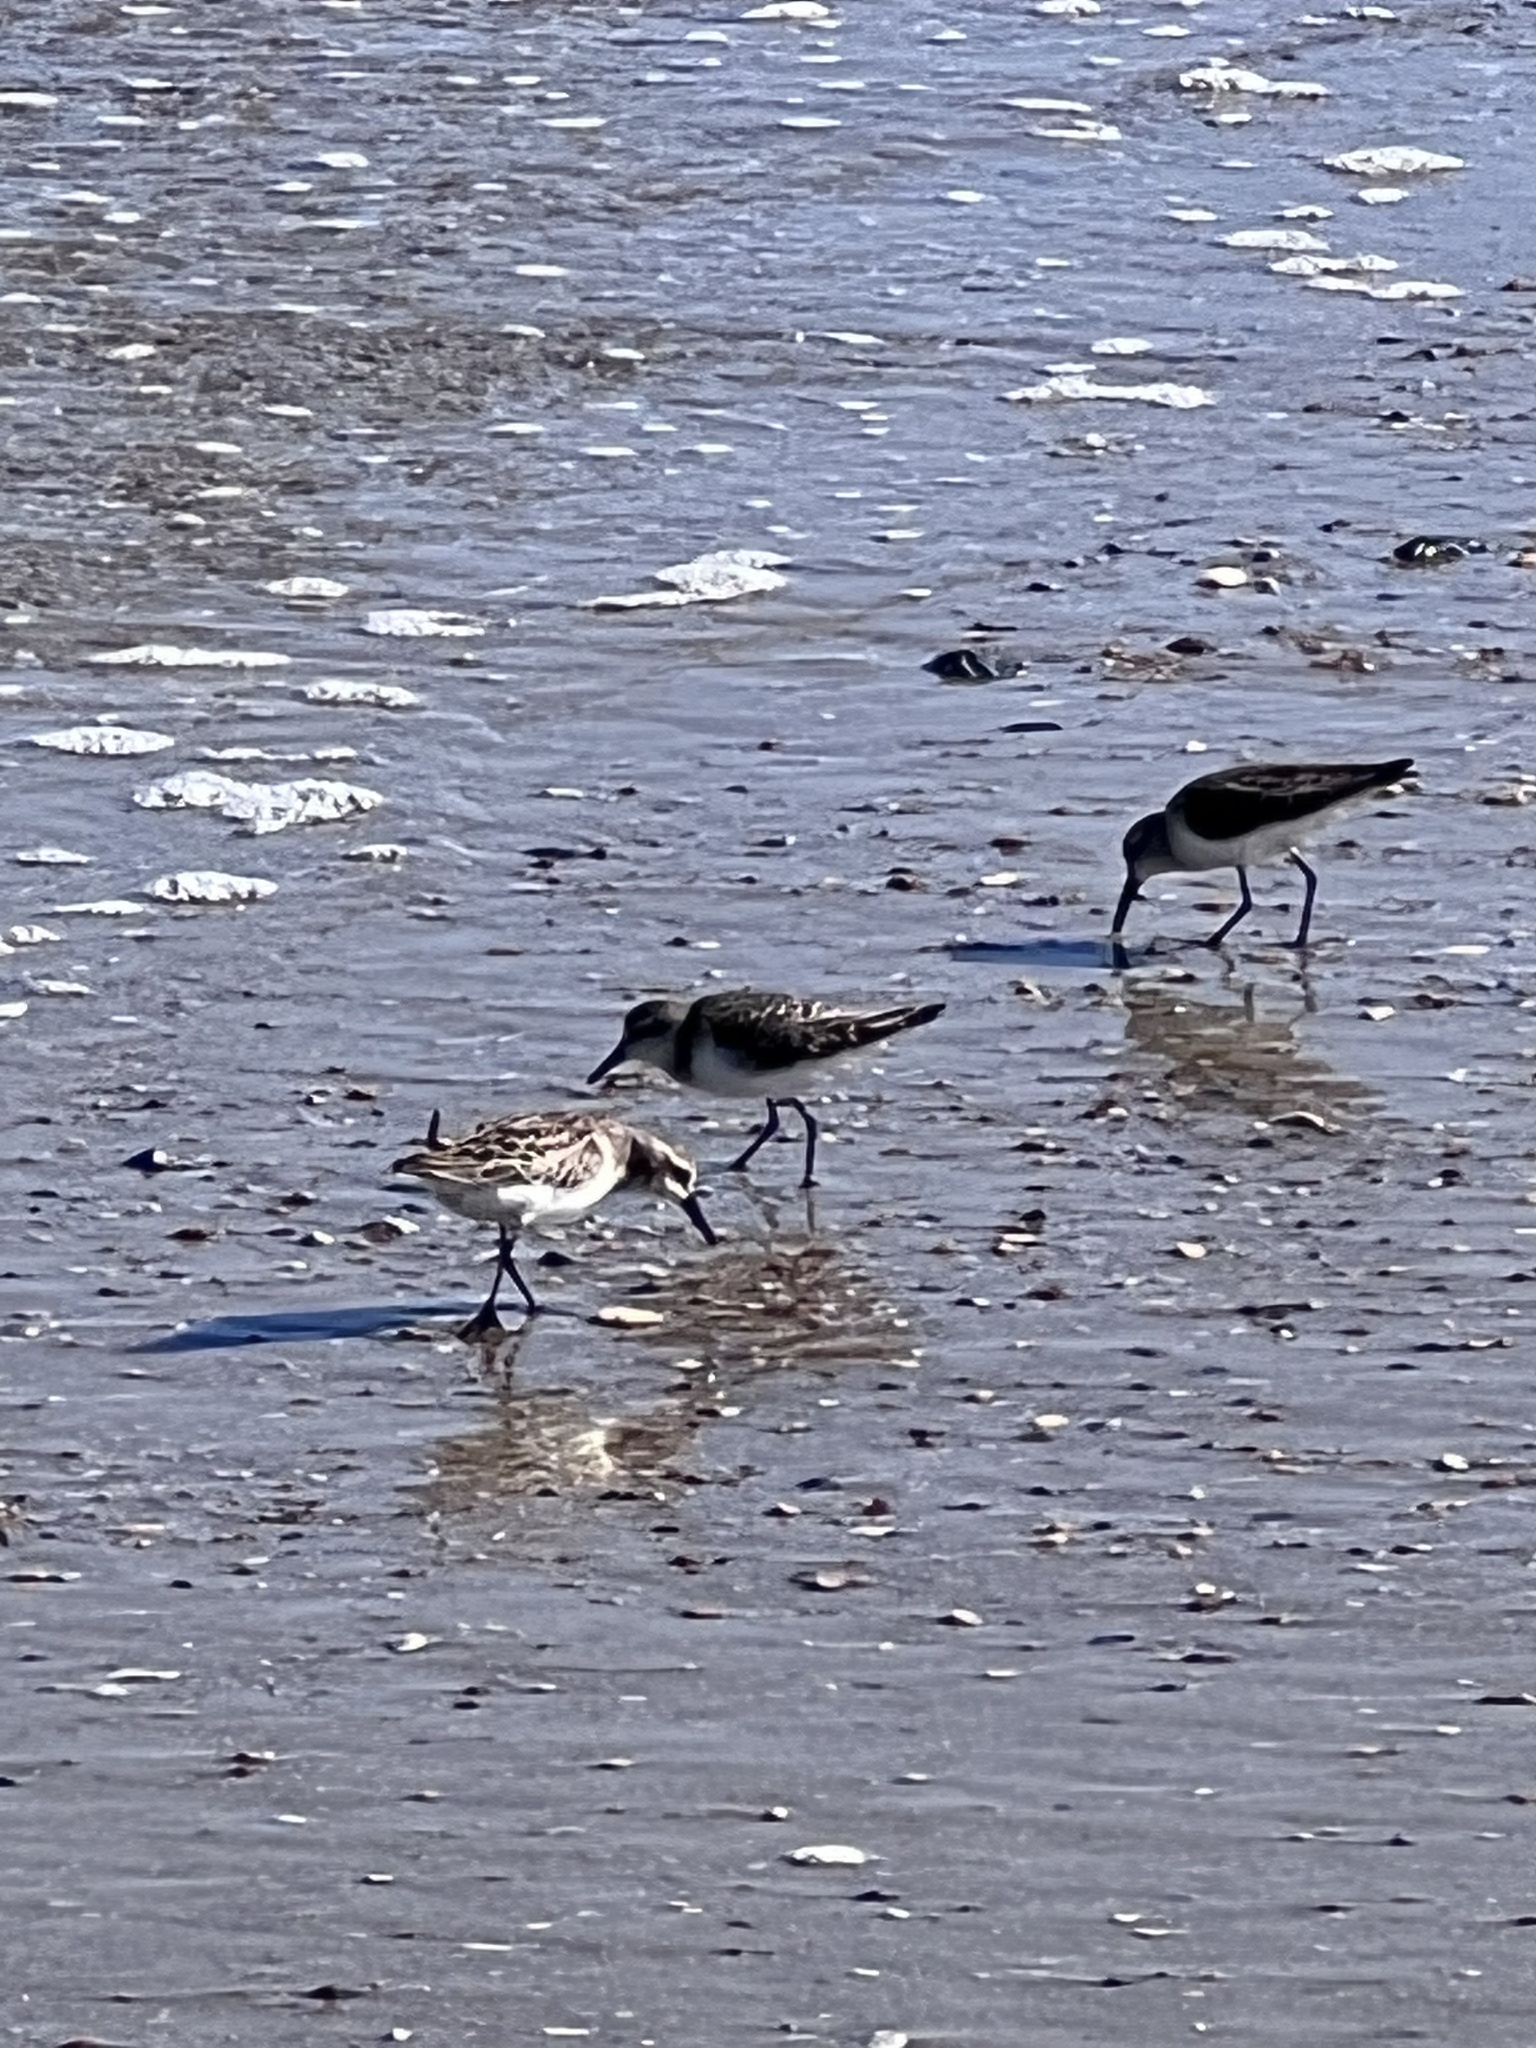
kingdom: Animalia
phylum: Chordata
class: Aves
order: Charadriiformes
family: Scolopacidae
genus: Calidris
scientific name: Calidris pusilla
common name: Semipalmated sandpiper
